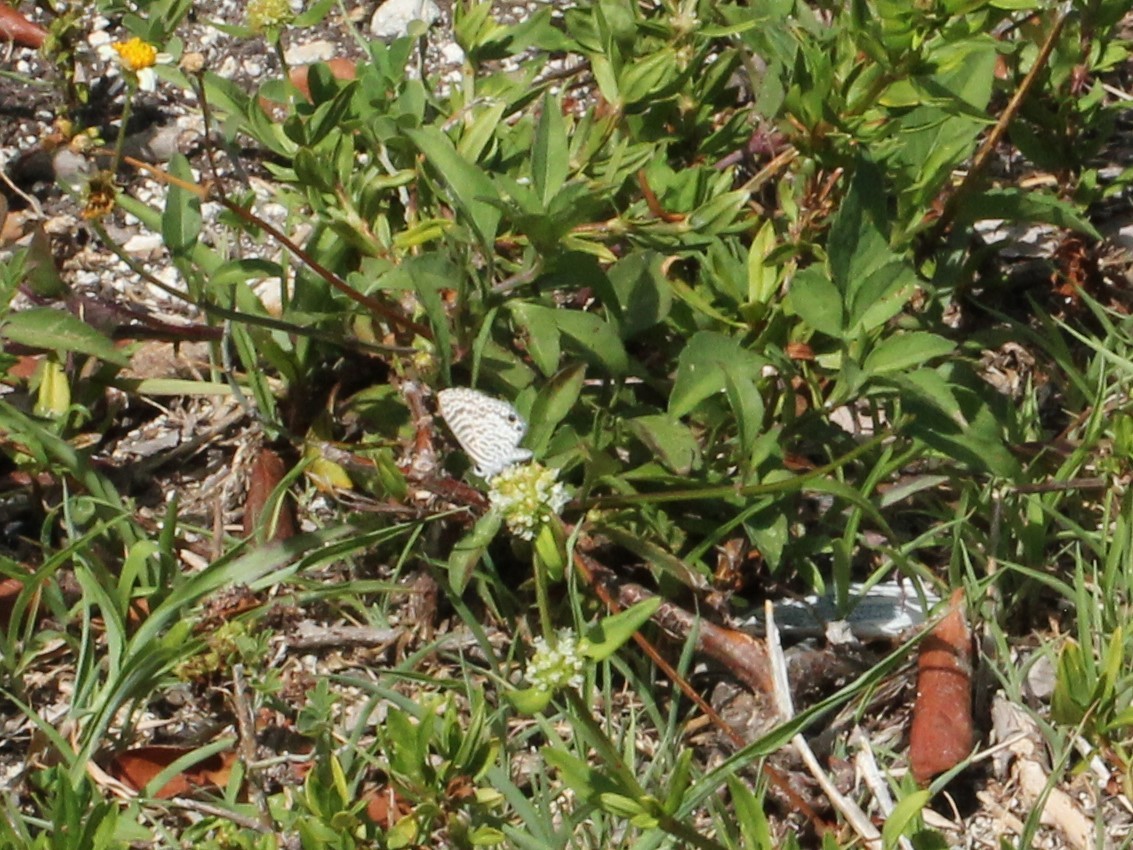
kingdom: Animalia
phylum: Arthropoda
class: Insecta
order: Lepidoptera
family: Lycaenidae
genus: Leptotes
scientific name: Leptotes cassius
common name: Cassius blue
